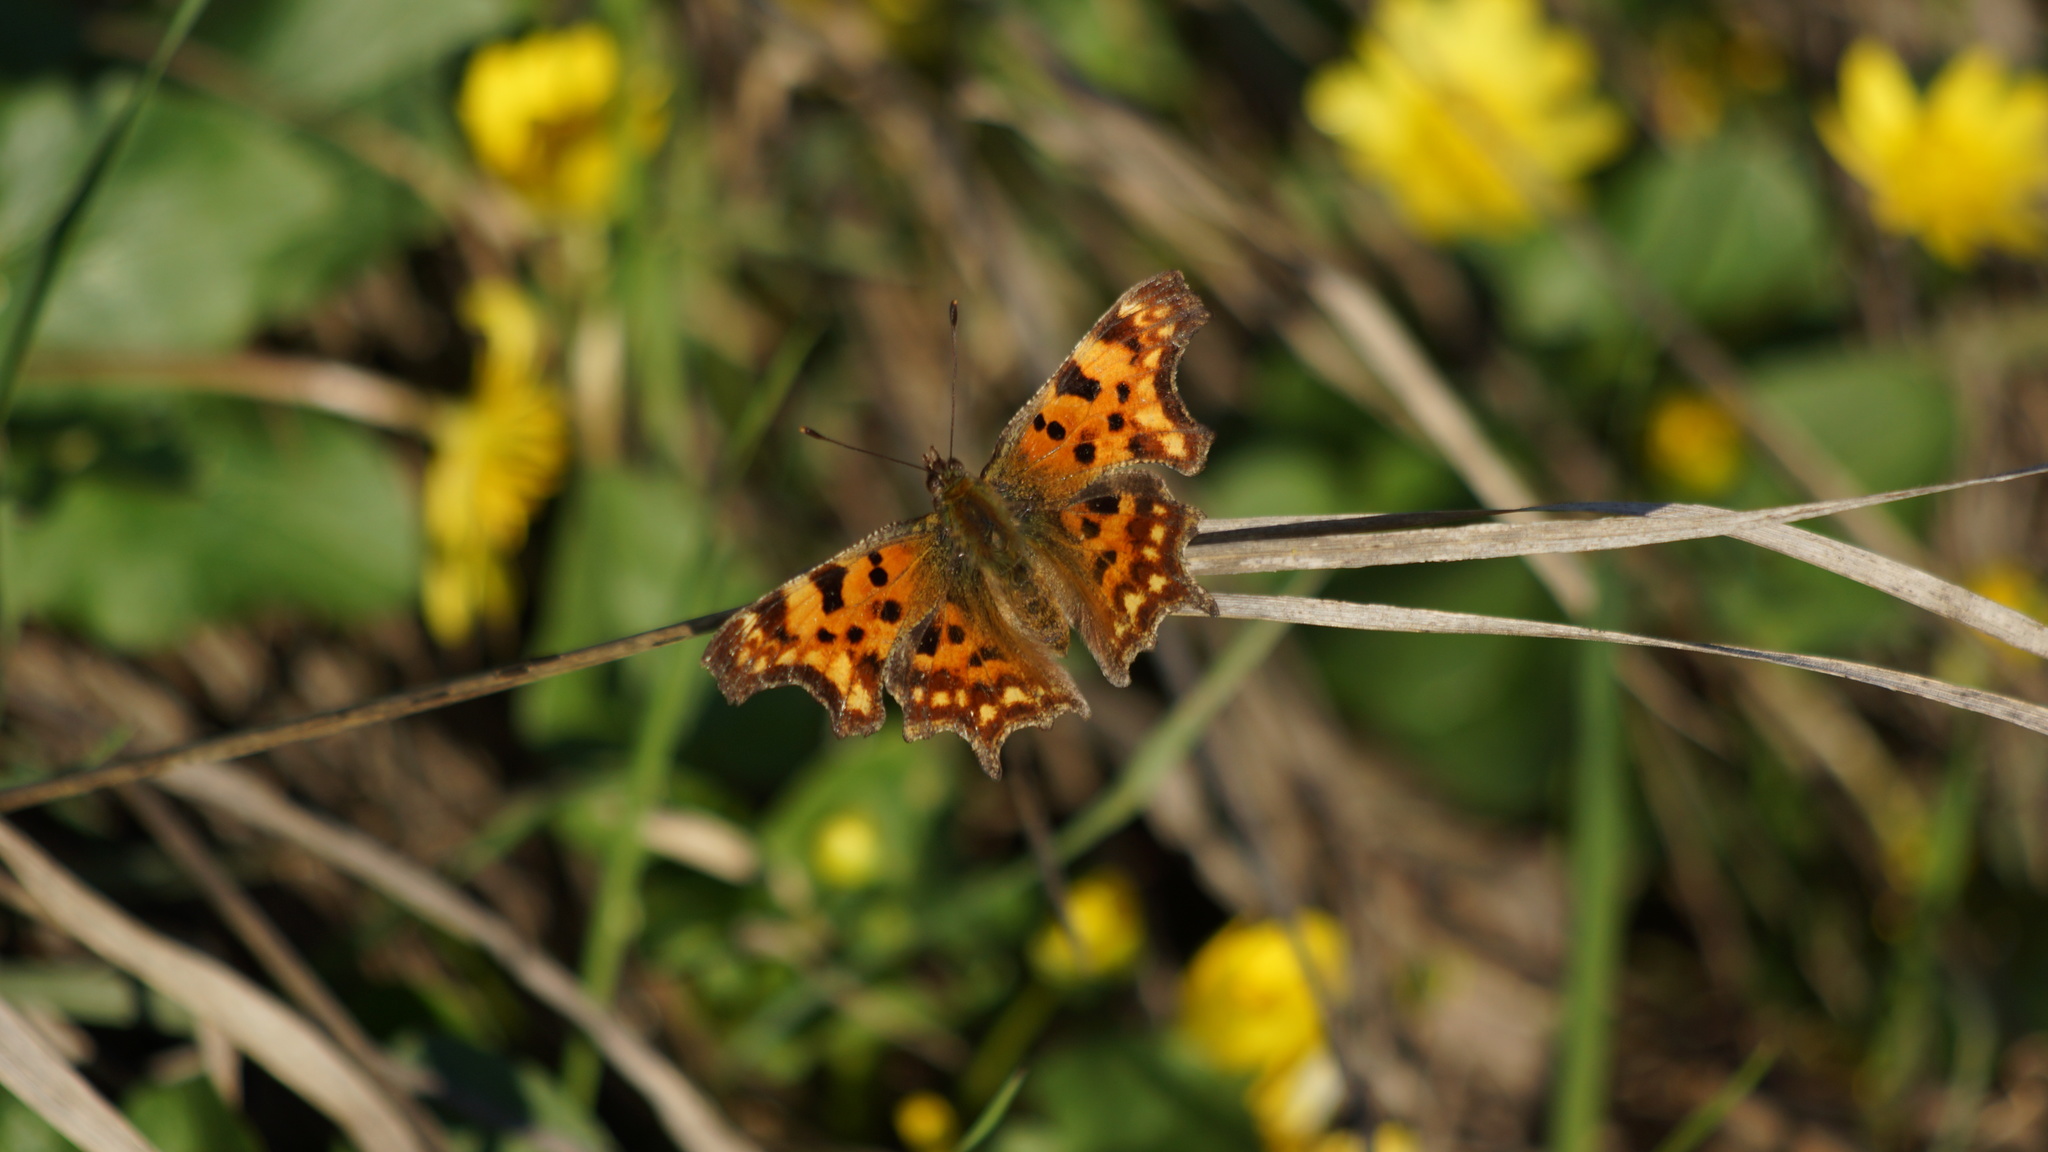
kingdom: Animalia
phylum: Arthropoda
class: Insecta
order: Lepidoptera
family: Nymphalidae
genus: Polygonia
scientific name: Polygonia c-album
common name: Comma
